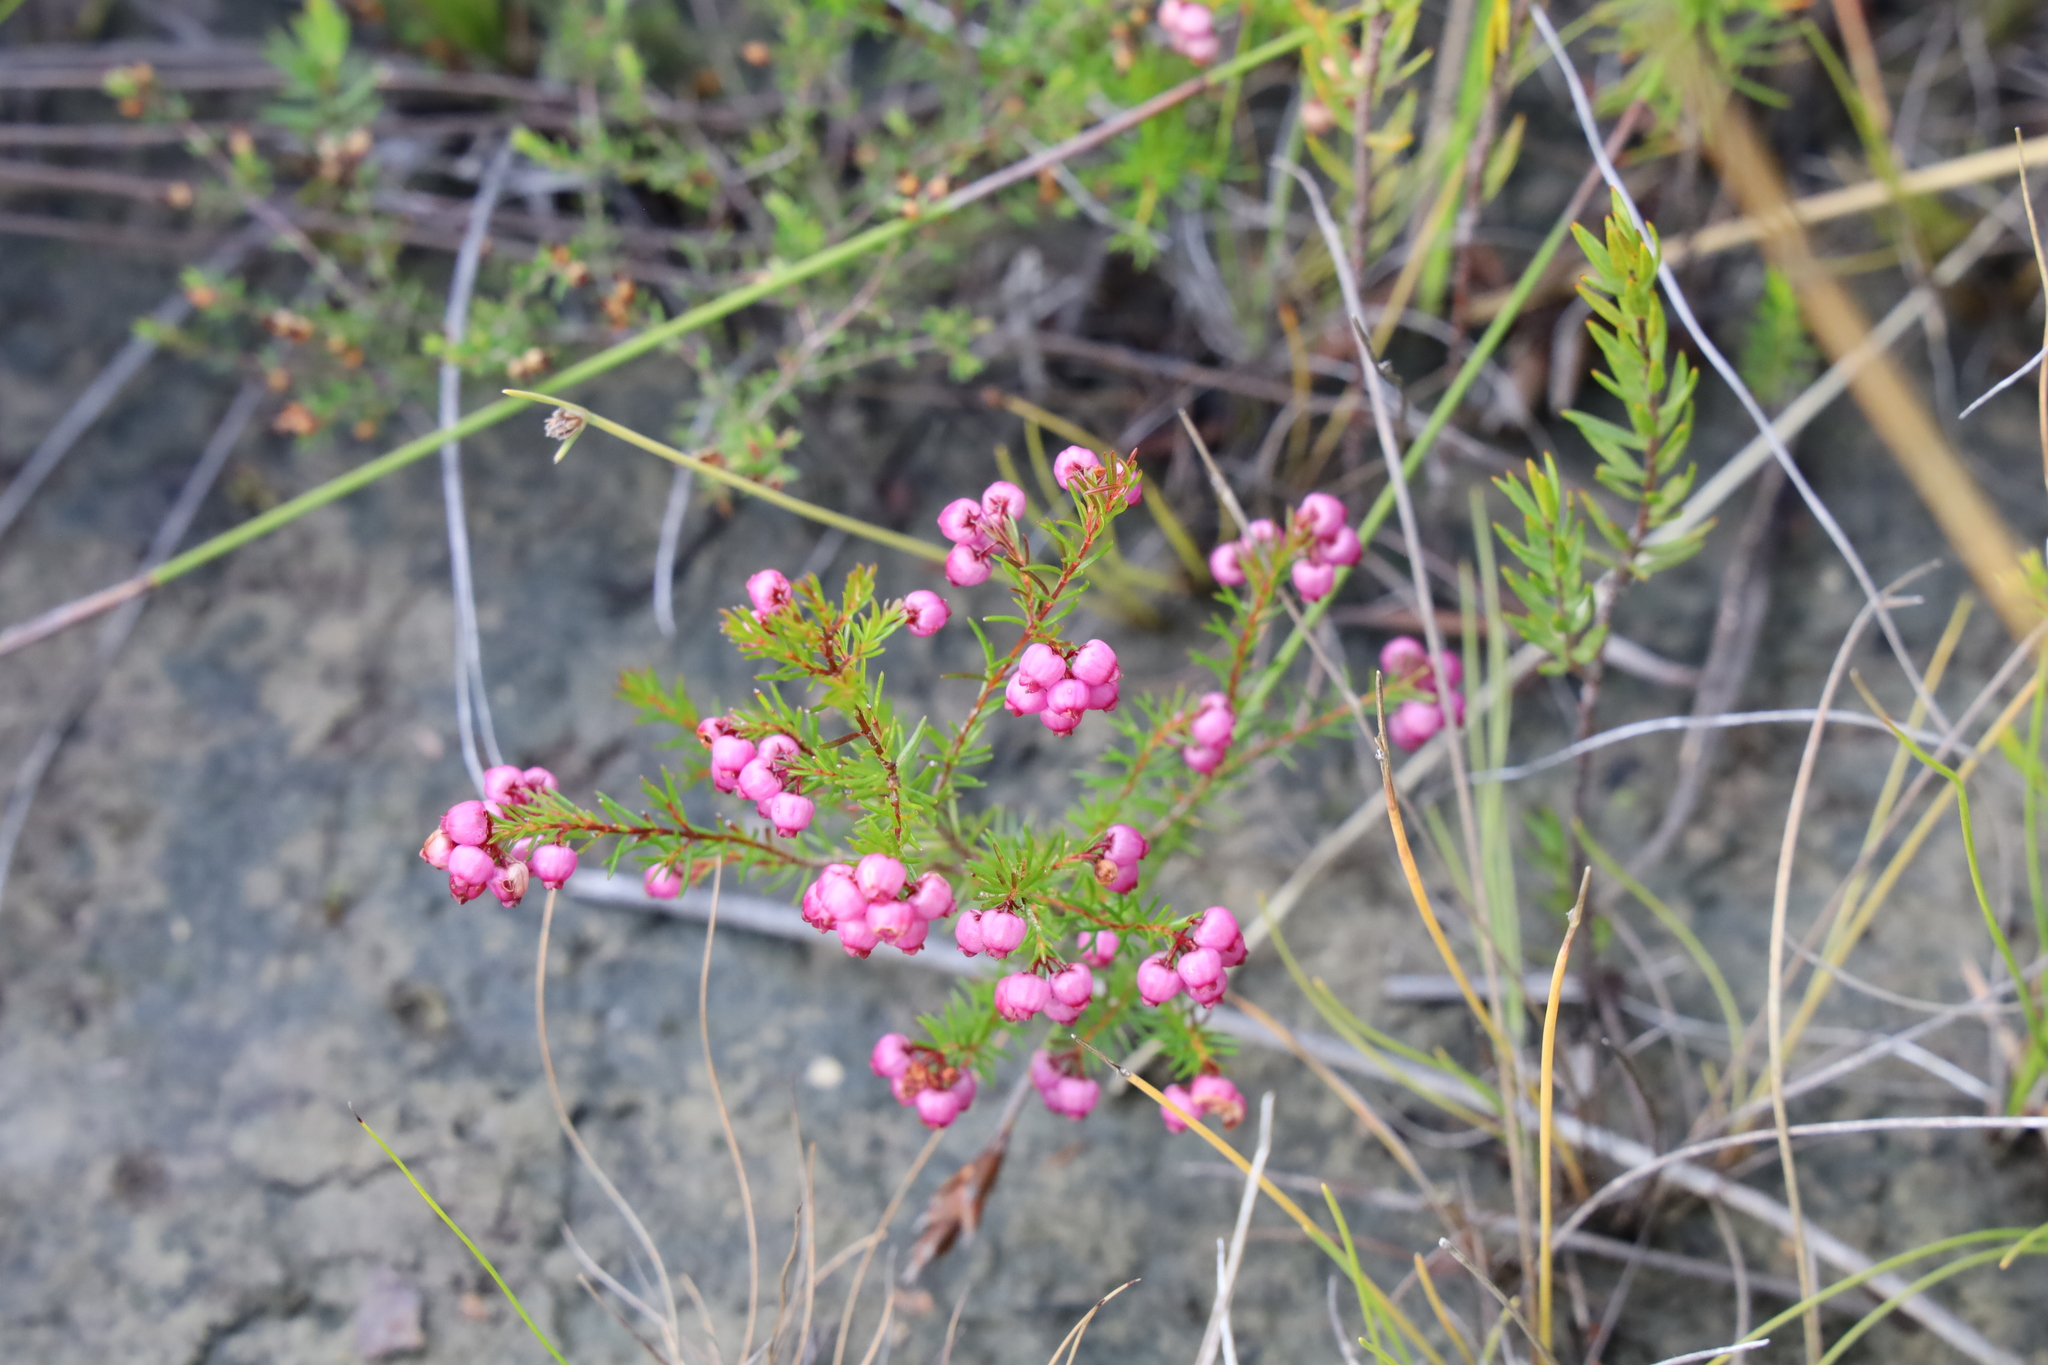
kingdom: Plantae
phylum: Tracheophyta
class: Magnoliopsida
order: Ericales
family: Ericaceae
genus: Erica
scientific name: Erica multumbellifera
